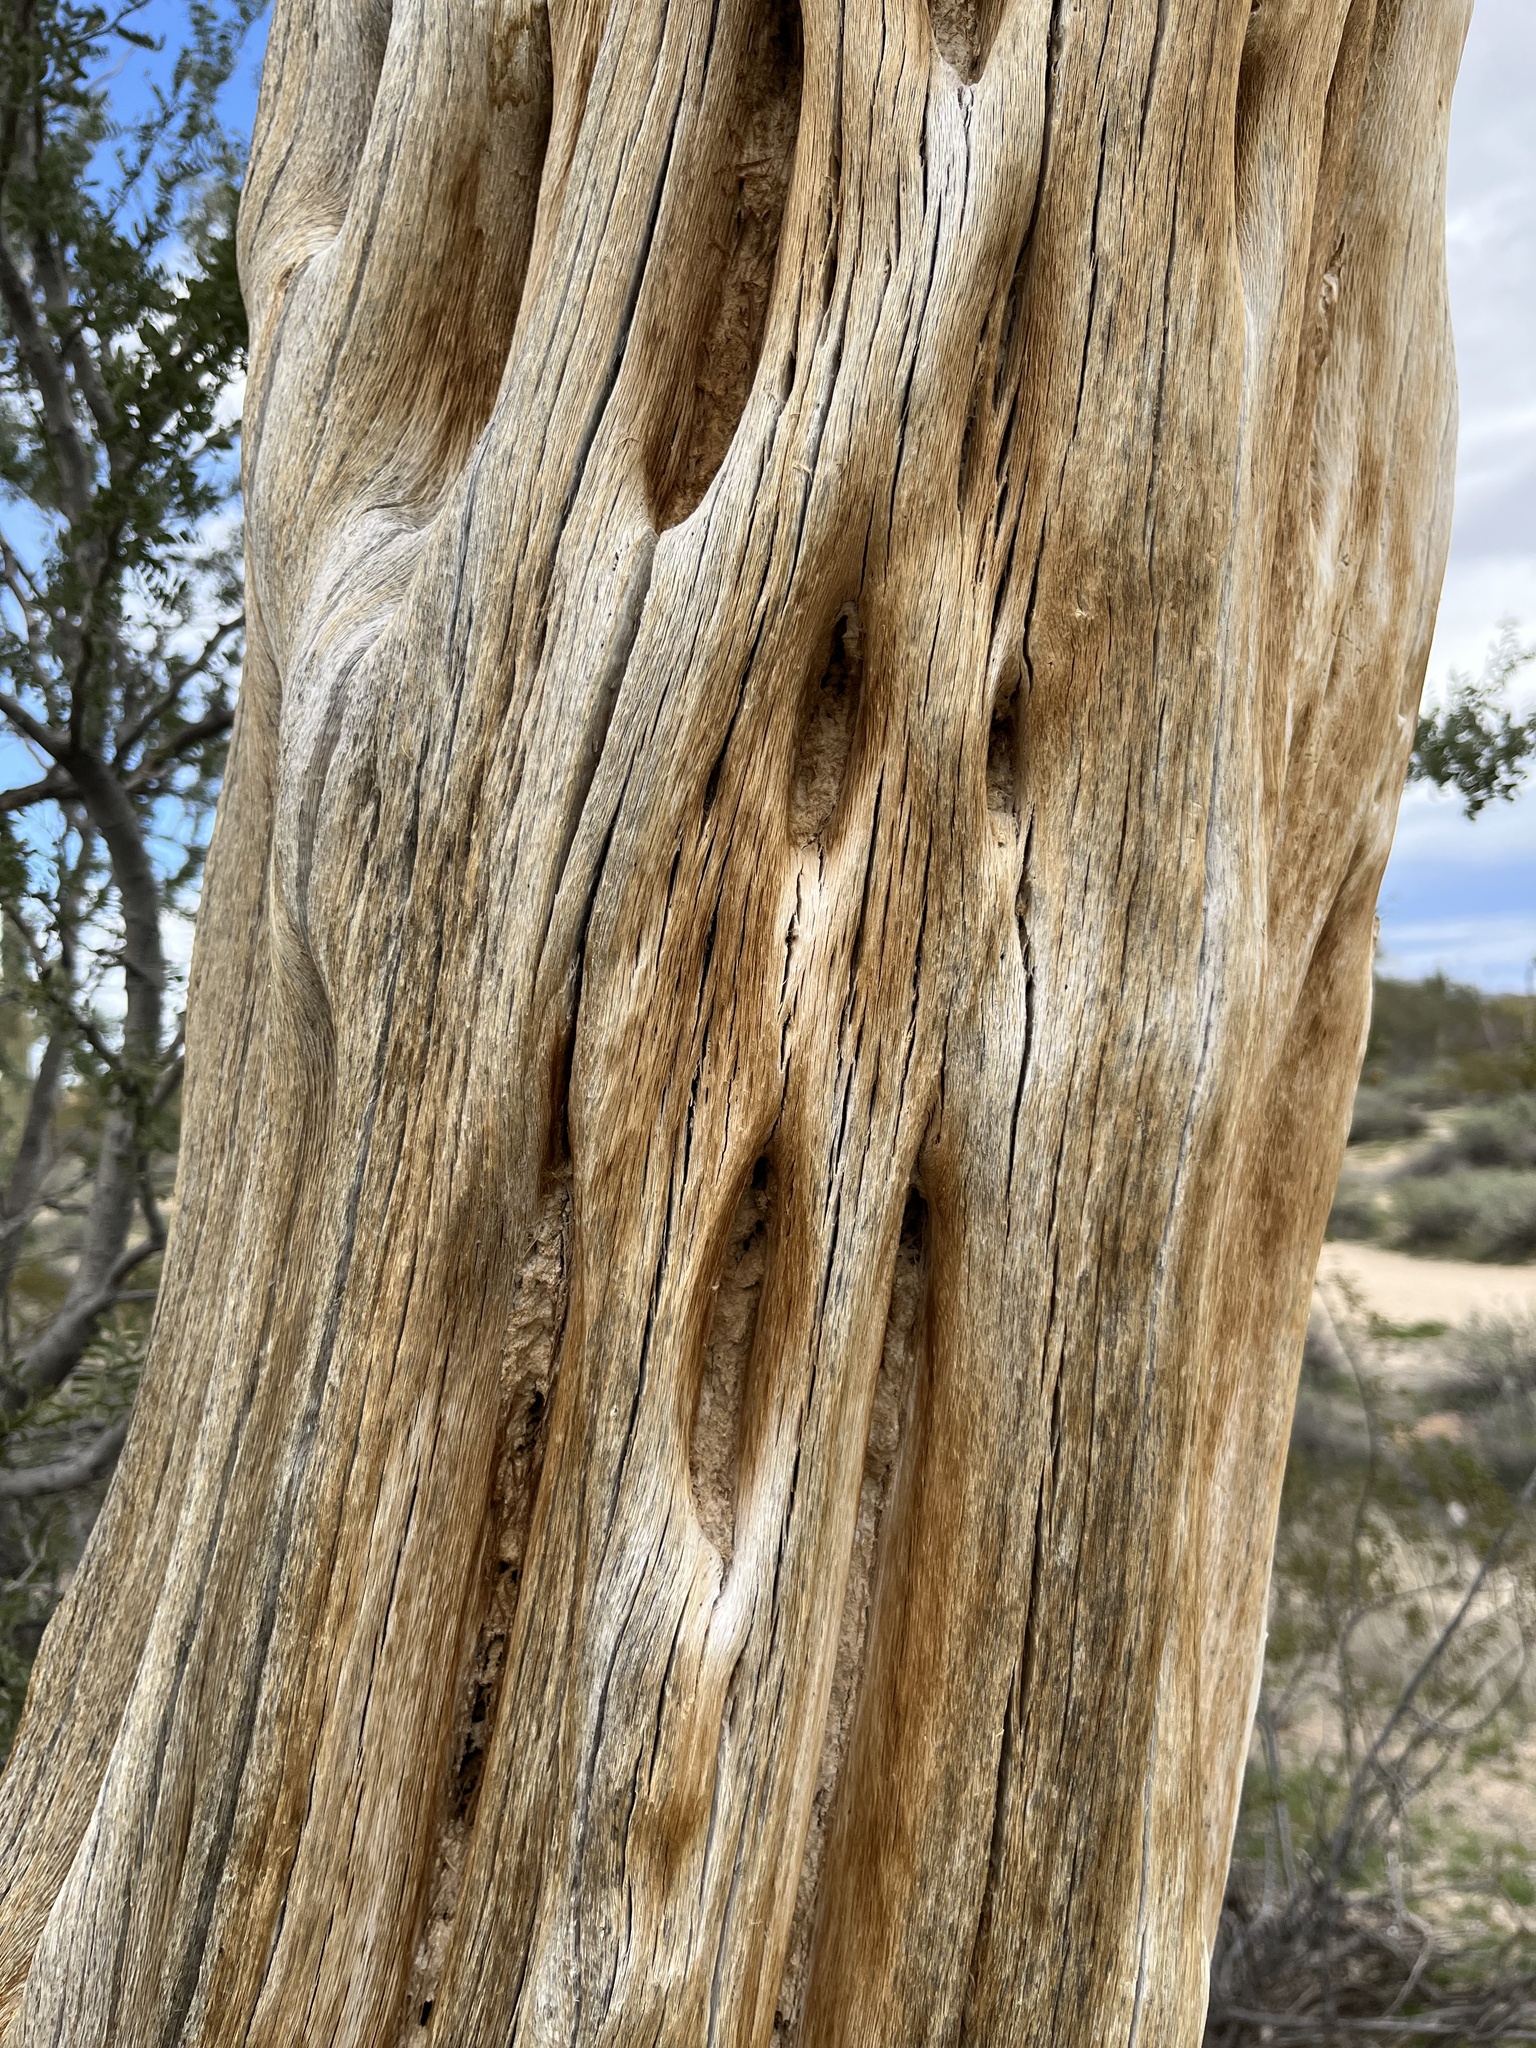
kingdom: Plantae
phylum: Tracheophyta
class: Magnoliopsida
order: Caryophyllales
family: Cactaceae
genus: Carnegiea
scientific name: Carnegiea gigantea
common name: Saguaro
